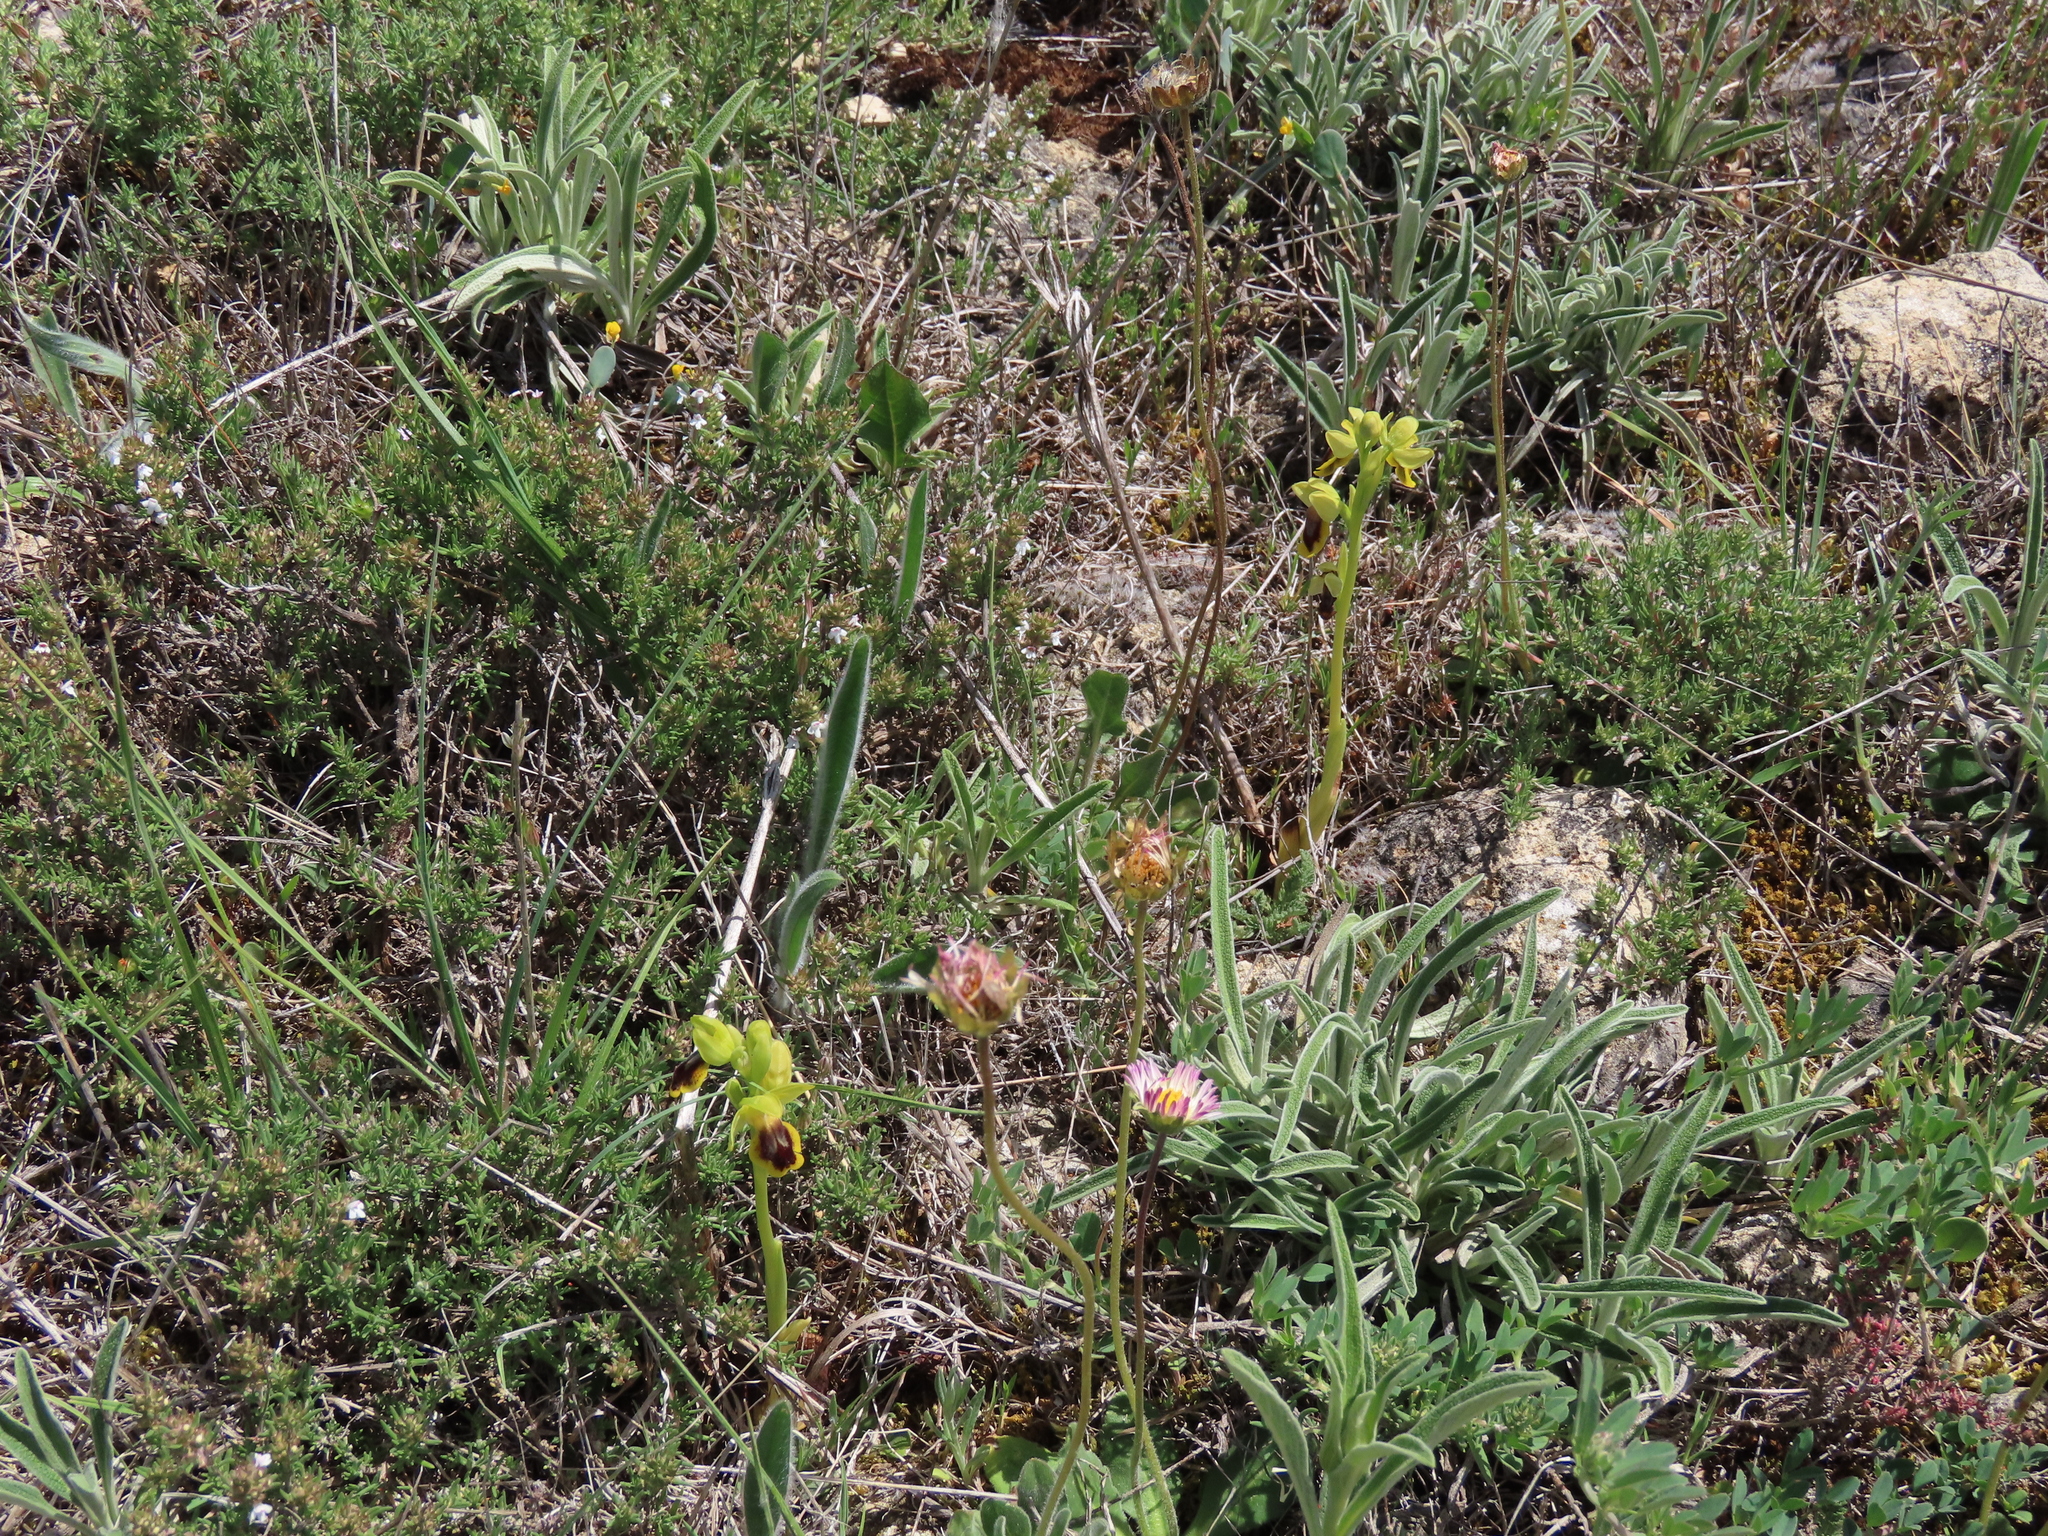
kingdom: Plantae
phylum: Tracheophyta
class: Liliopsida
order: Asparagales
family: Orchidaceae
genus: Ophrys
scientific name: Ophrys lutea
